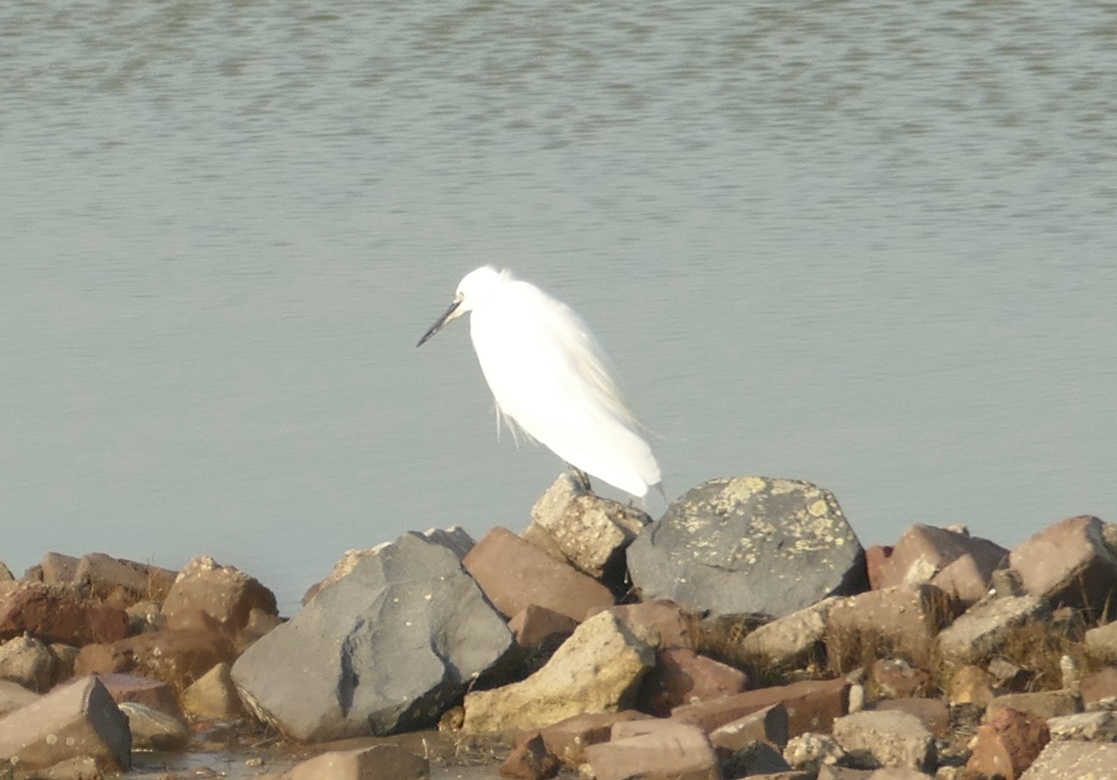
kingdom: Animalia
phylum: Chordata
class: Aves
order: Pelecaniformes
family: Ardeidae
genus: Egretta
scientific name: Egretta garzetta
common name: Little egret
